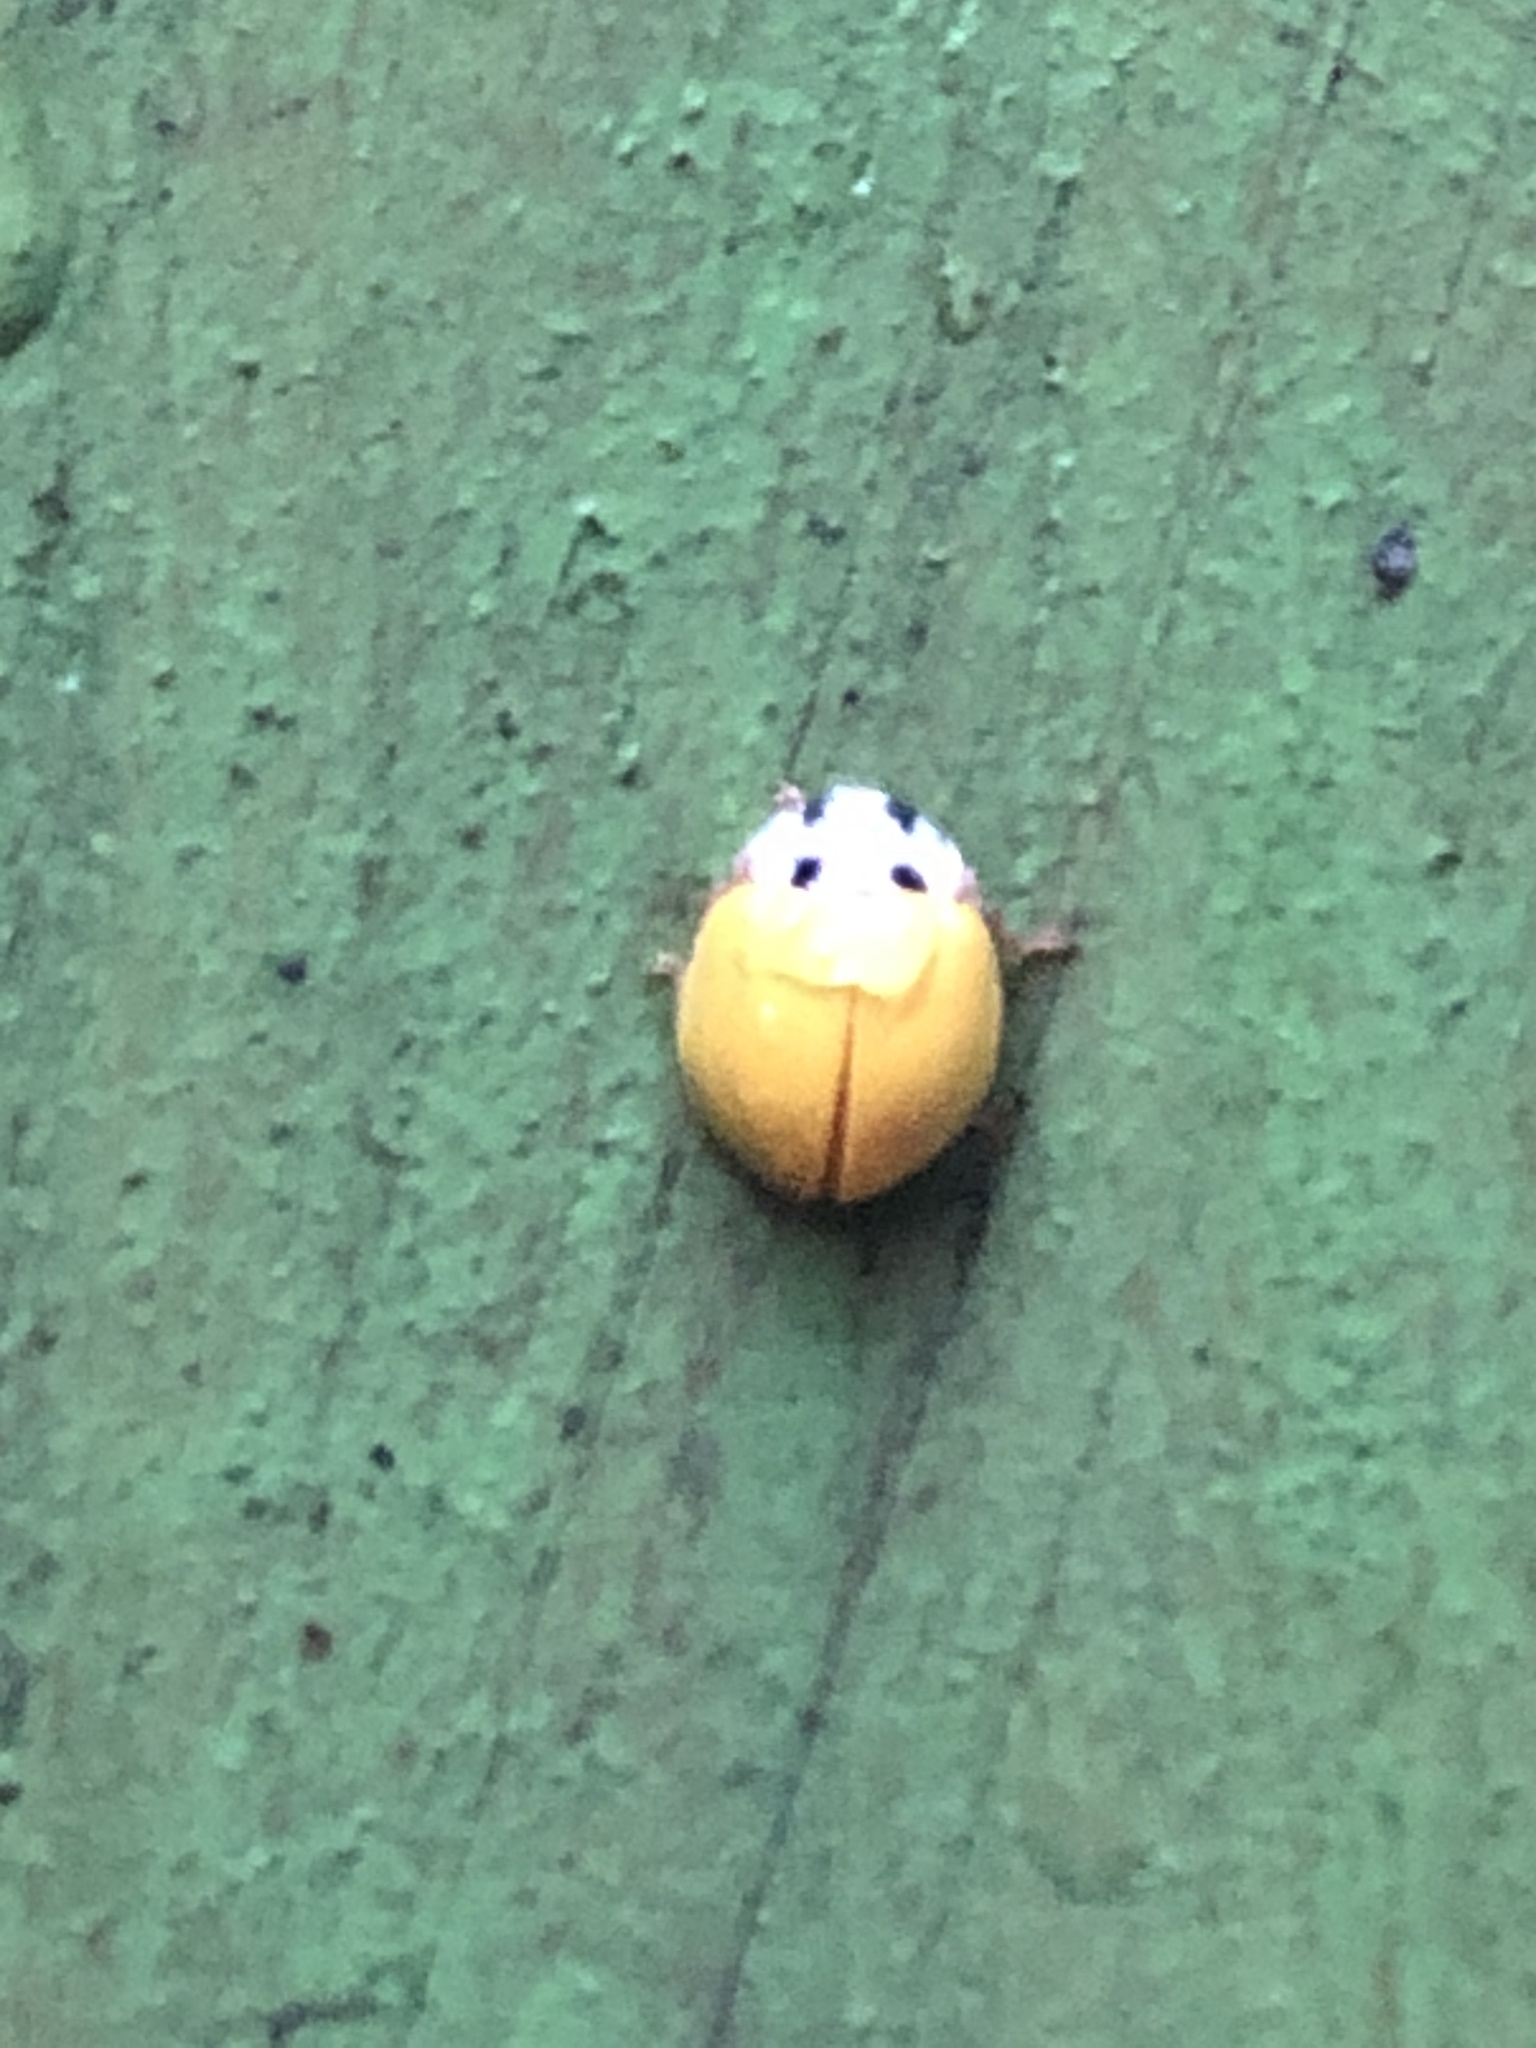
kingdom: Animalia
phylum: Arthropoda
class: Insecta
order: Coleoptera
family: Coccinellidae
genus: Illeis
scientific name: Illeis koebelei
